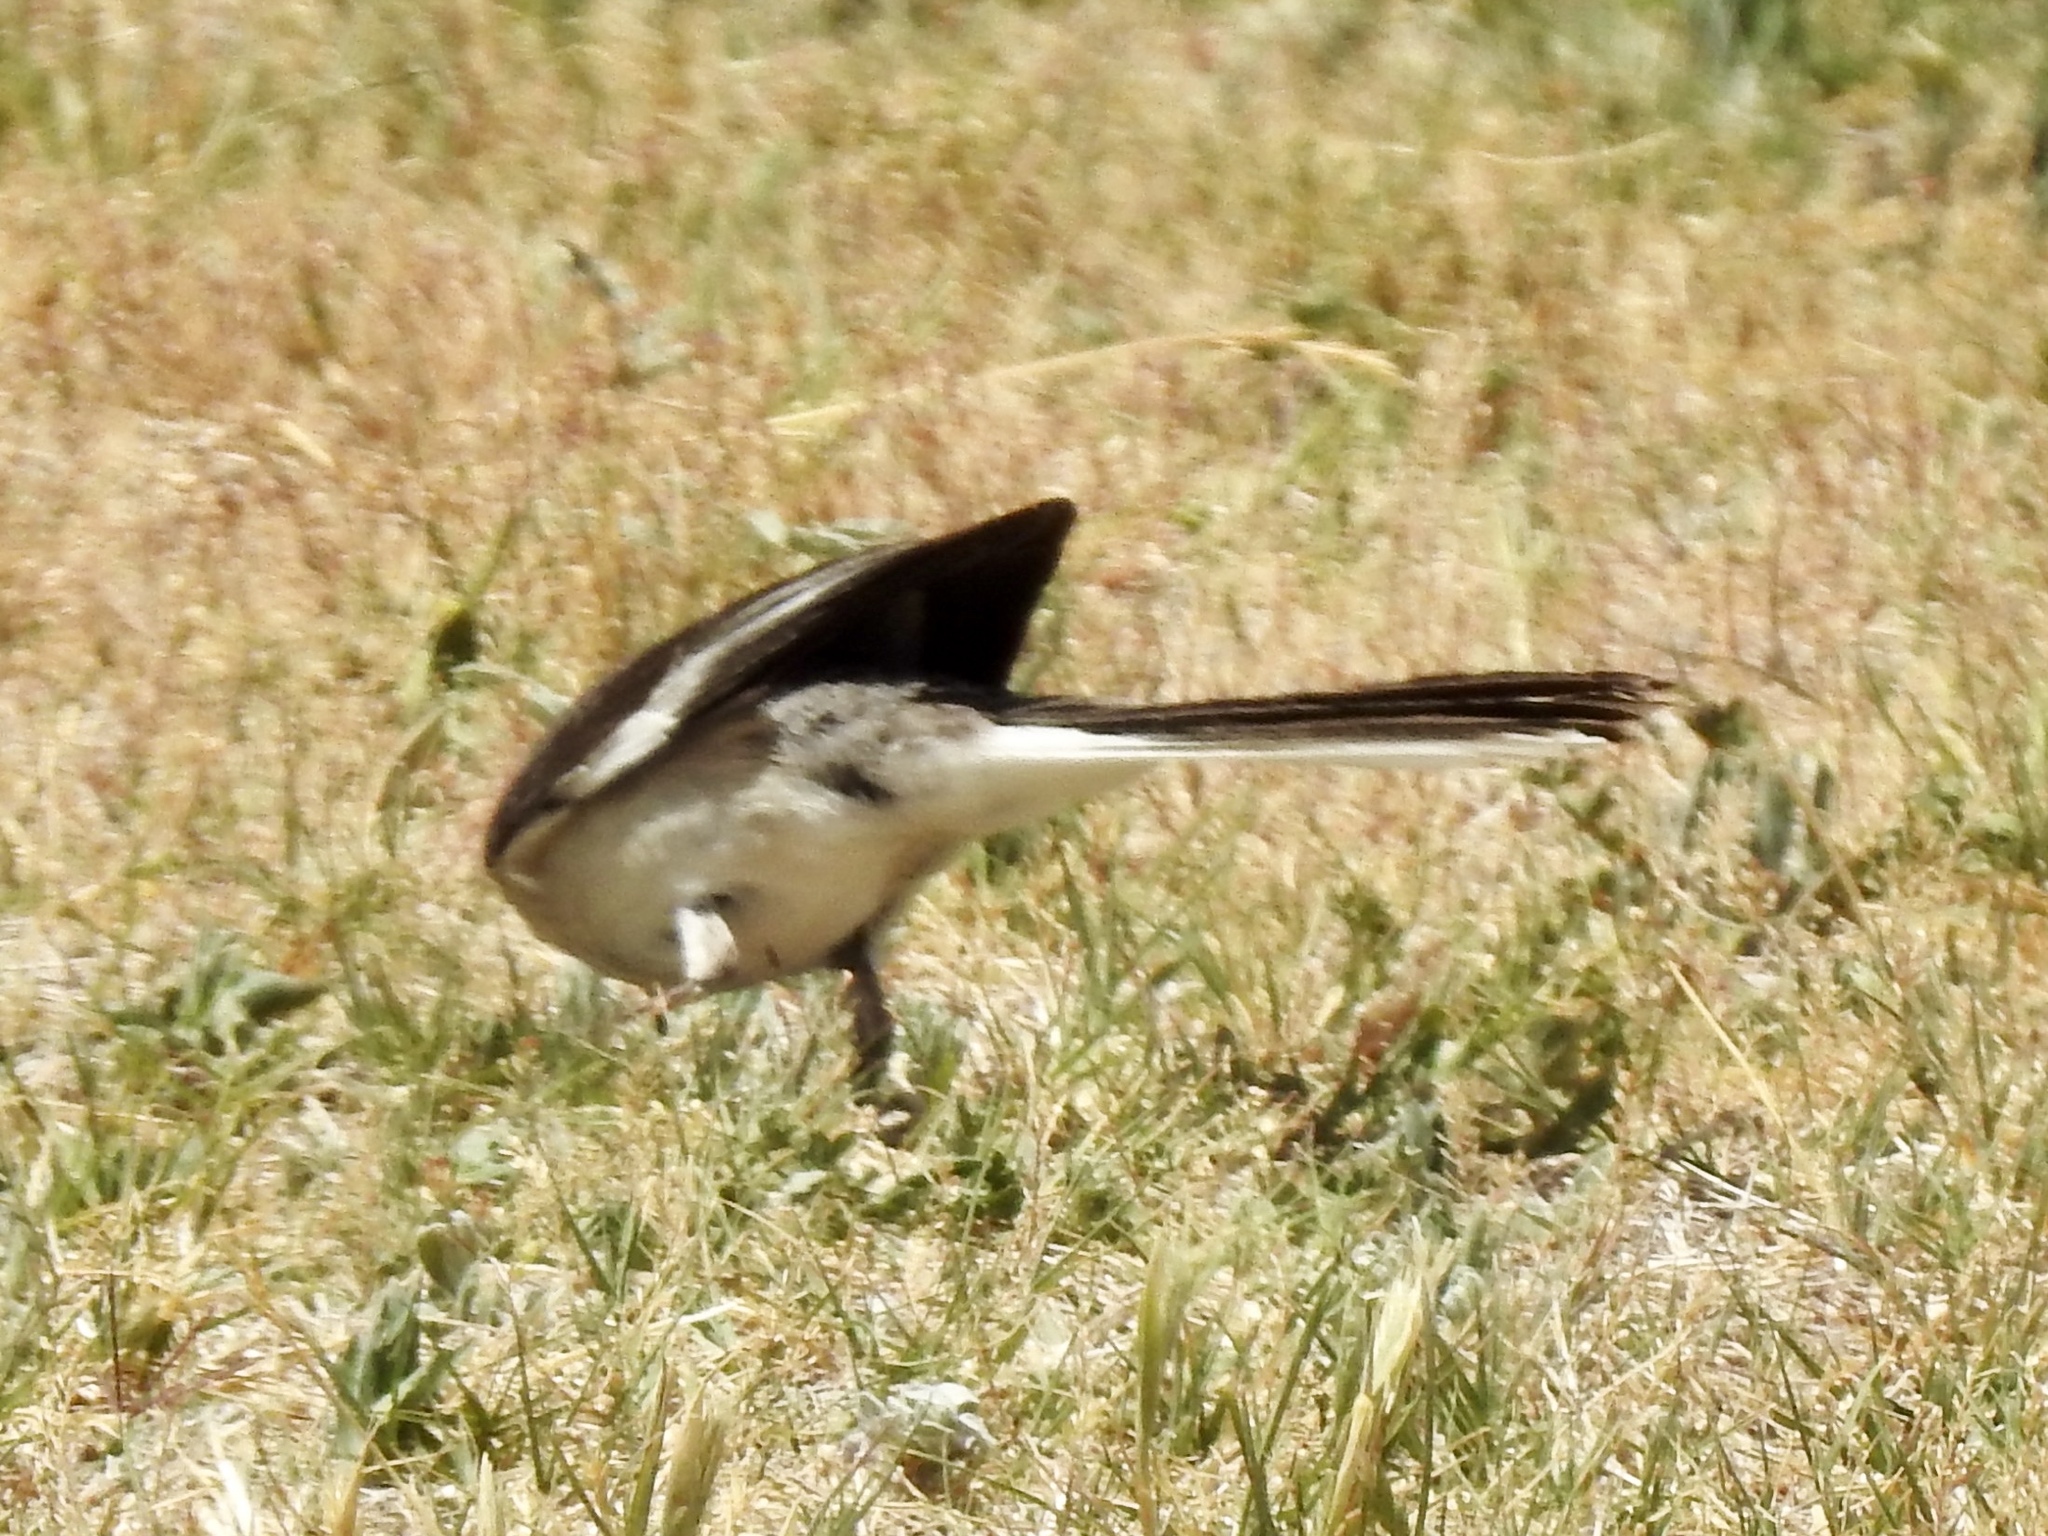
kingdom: Animalia
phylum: Chordata
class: Aves
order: Passeriformes
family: Mimidae
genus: Mimus
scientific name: Mimus polyglottos
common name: Northern mockingbird
